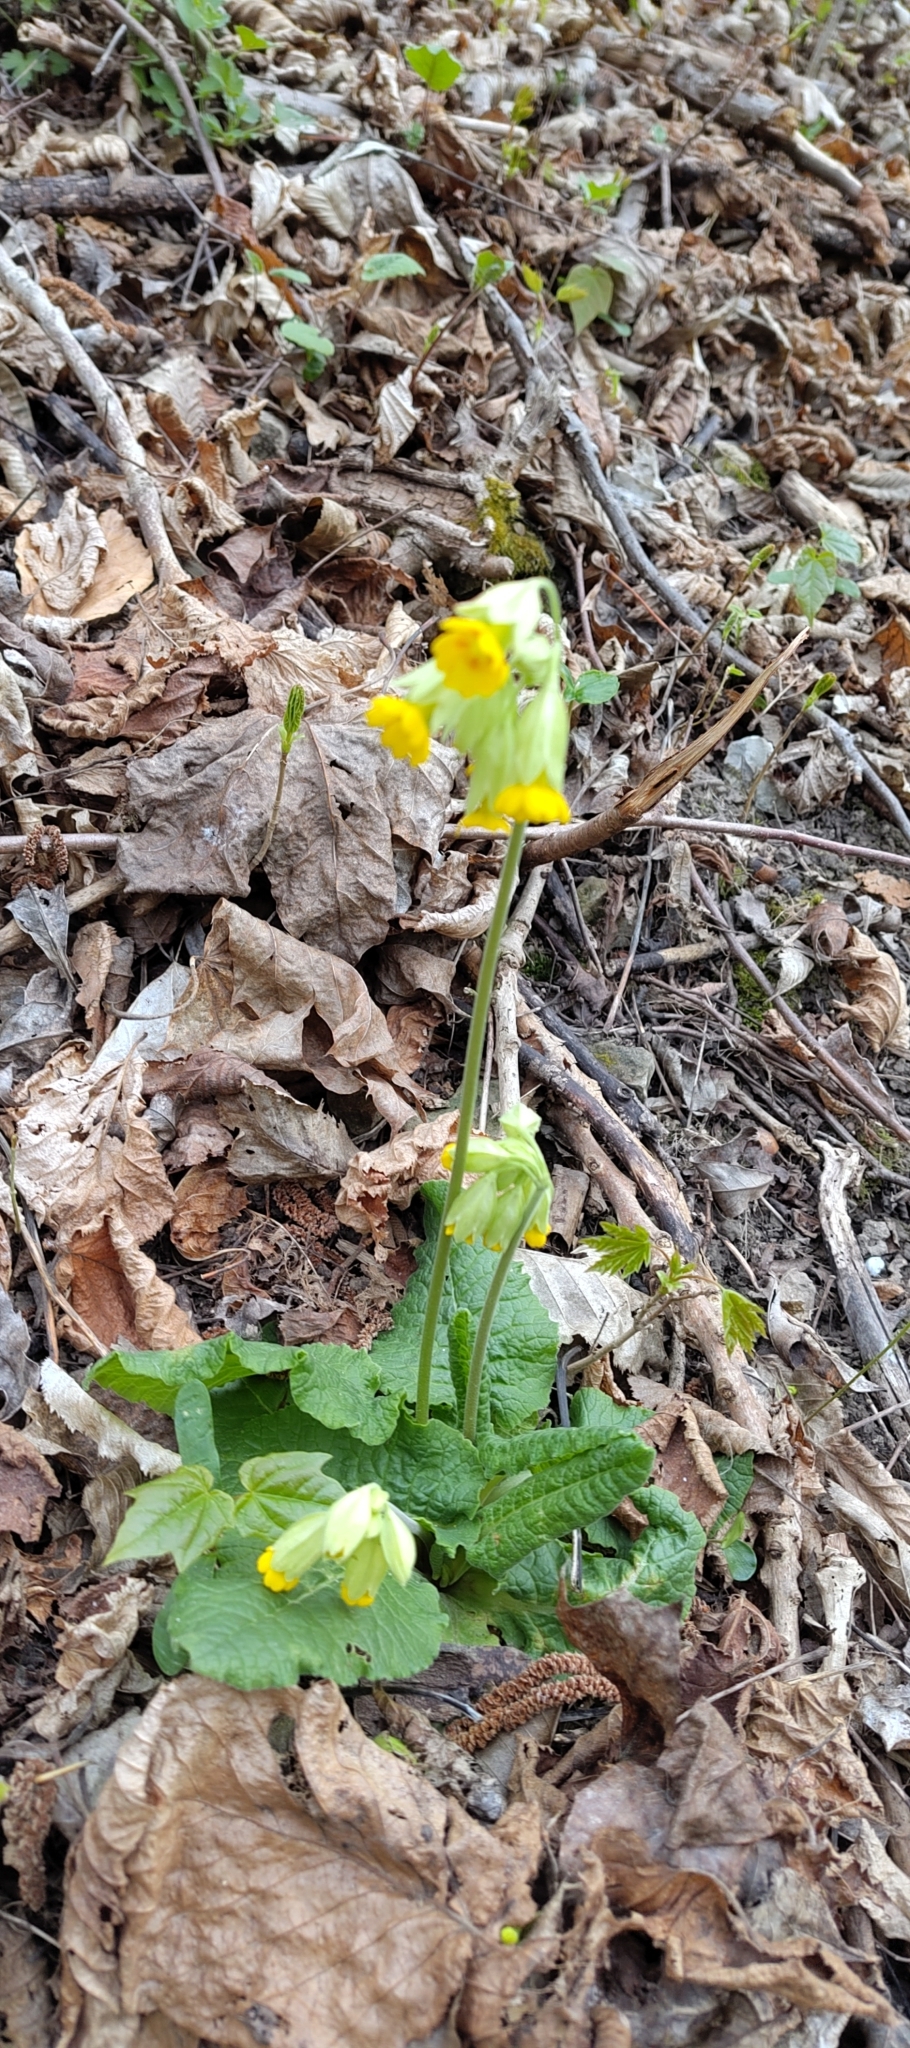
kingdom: Plantae
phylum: Tracheophyta
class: Magnoliopsida
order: Ericales
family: Primulaceae
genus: Primula
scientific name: Primula veris
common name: Cowslip
